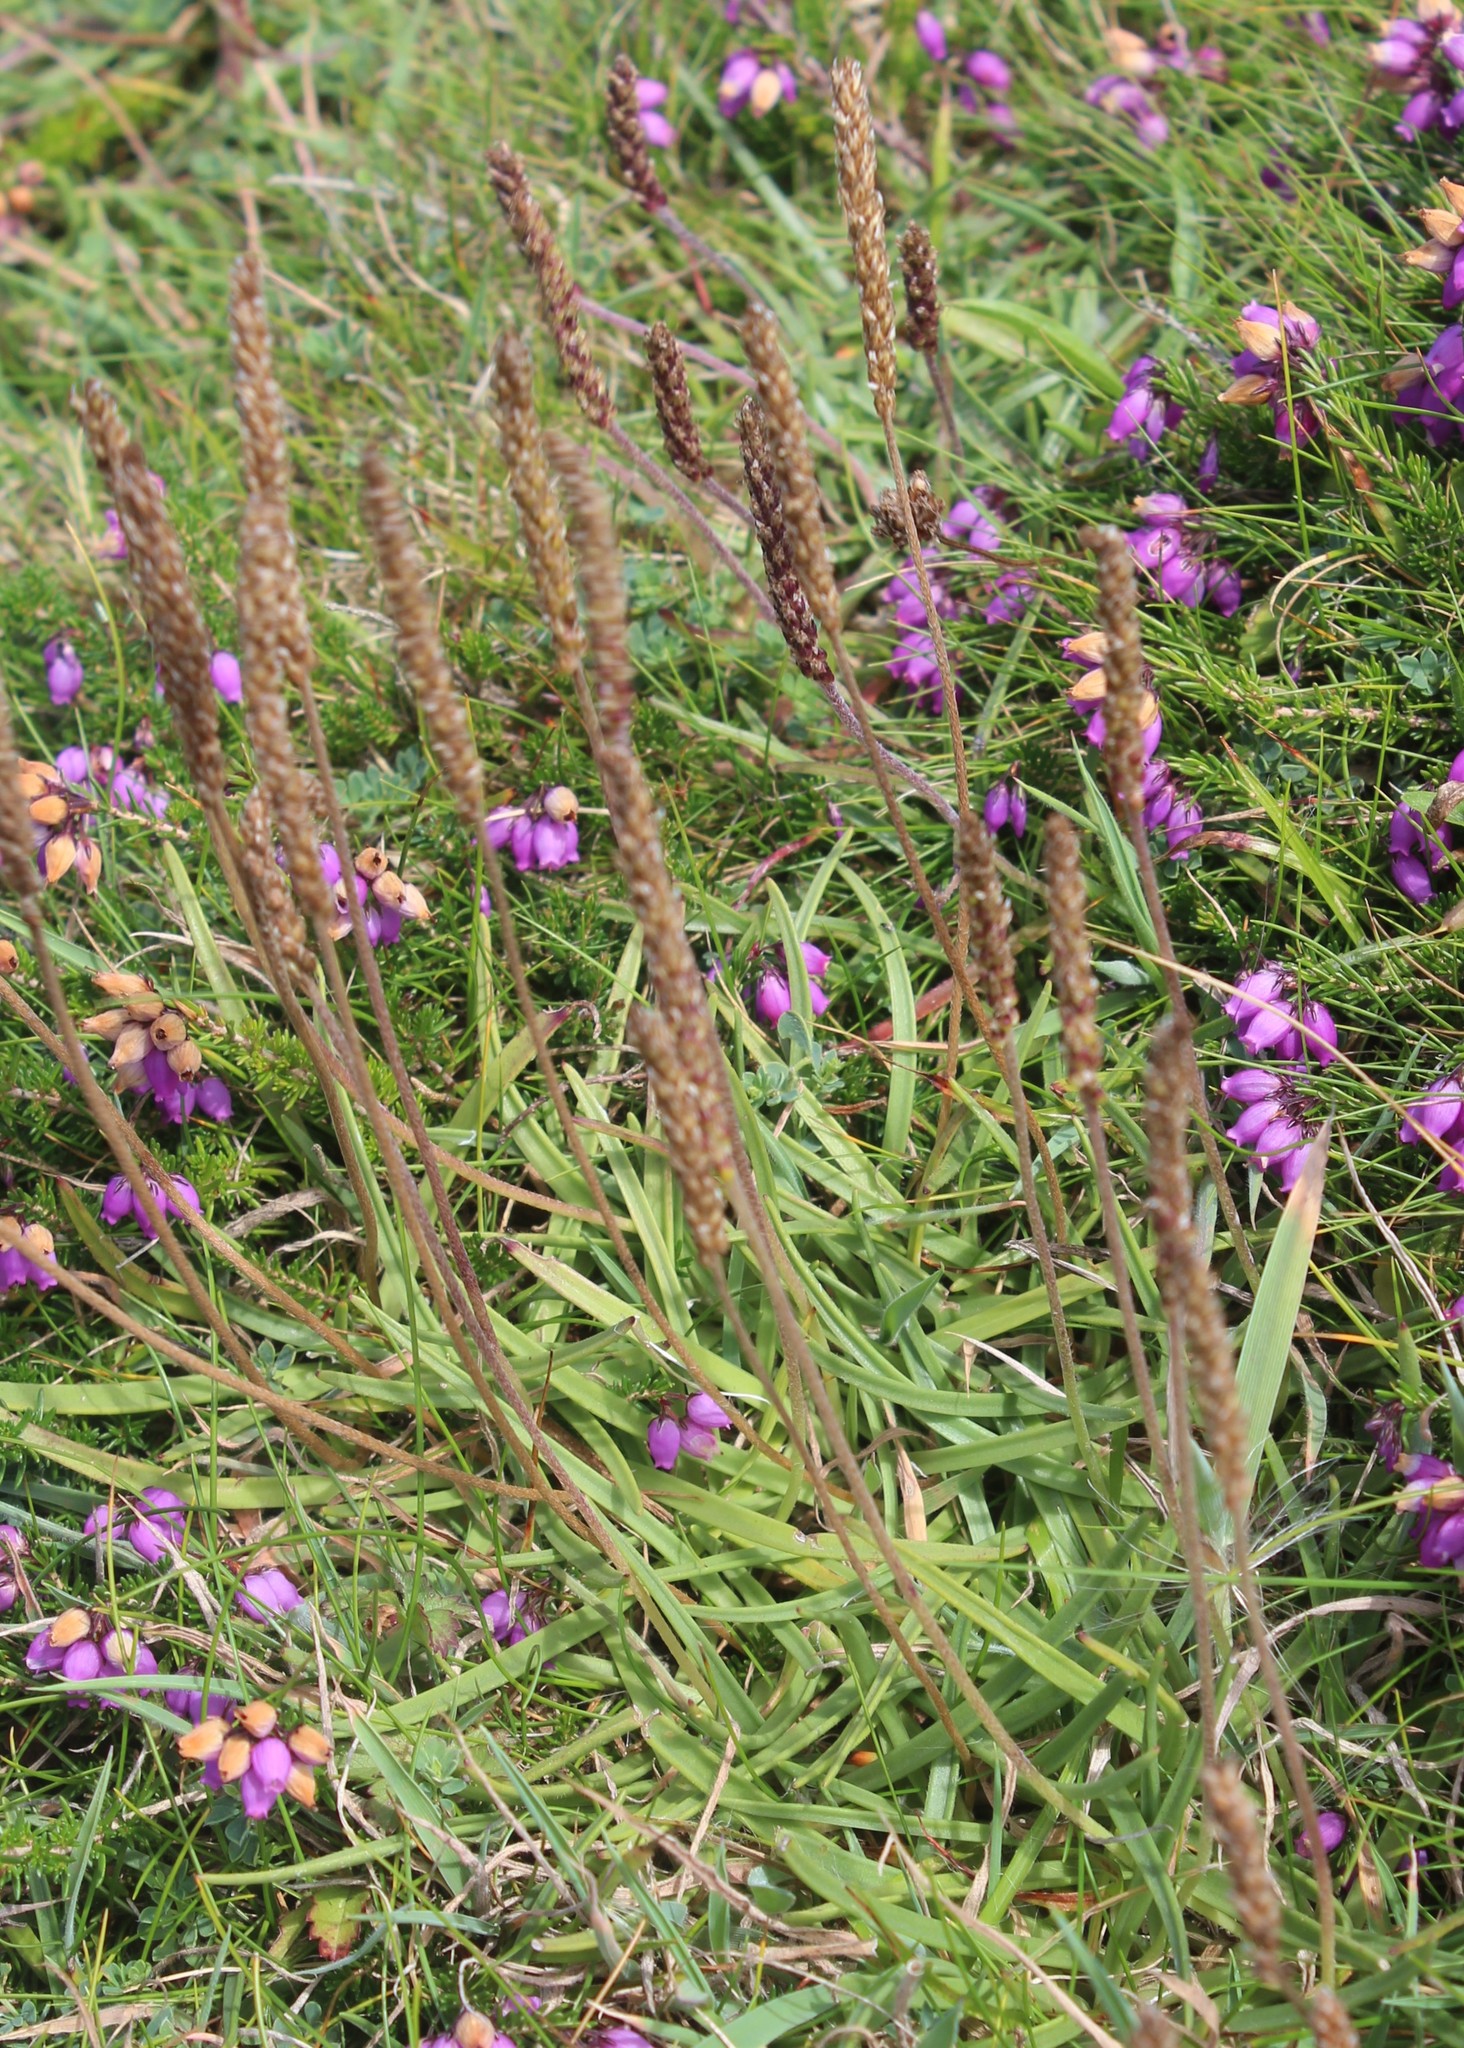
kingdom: Plantae
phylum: Tracheophyta
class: Magnoliopsida
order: Lamiales
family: Plantaginaceae
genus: Plantago
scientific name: Plantago maritima
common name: Sea plantain
